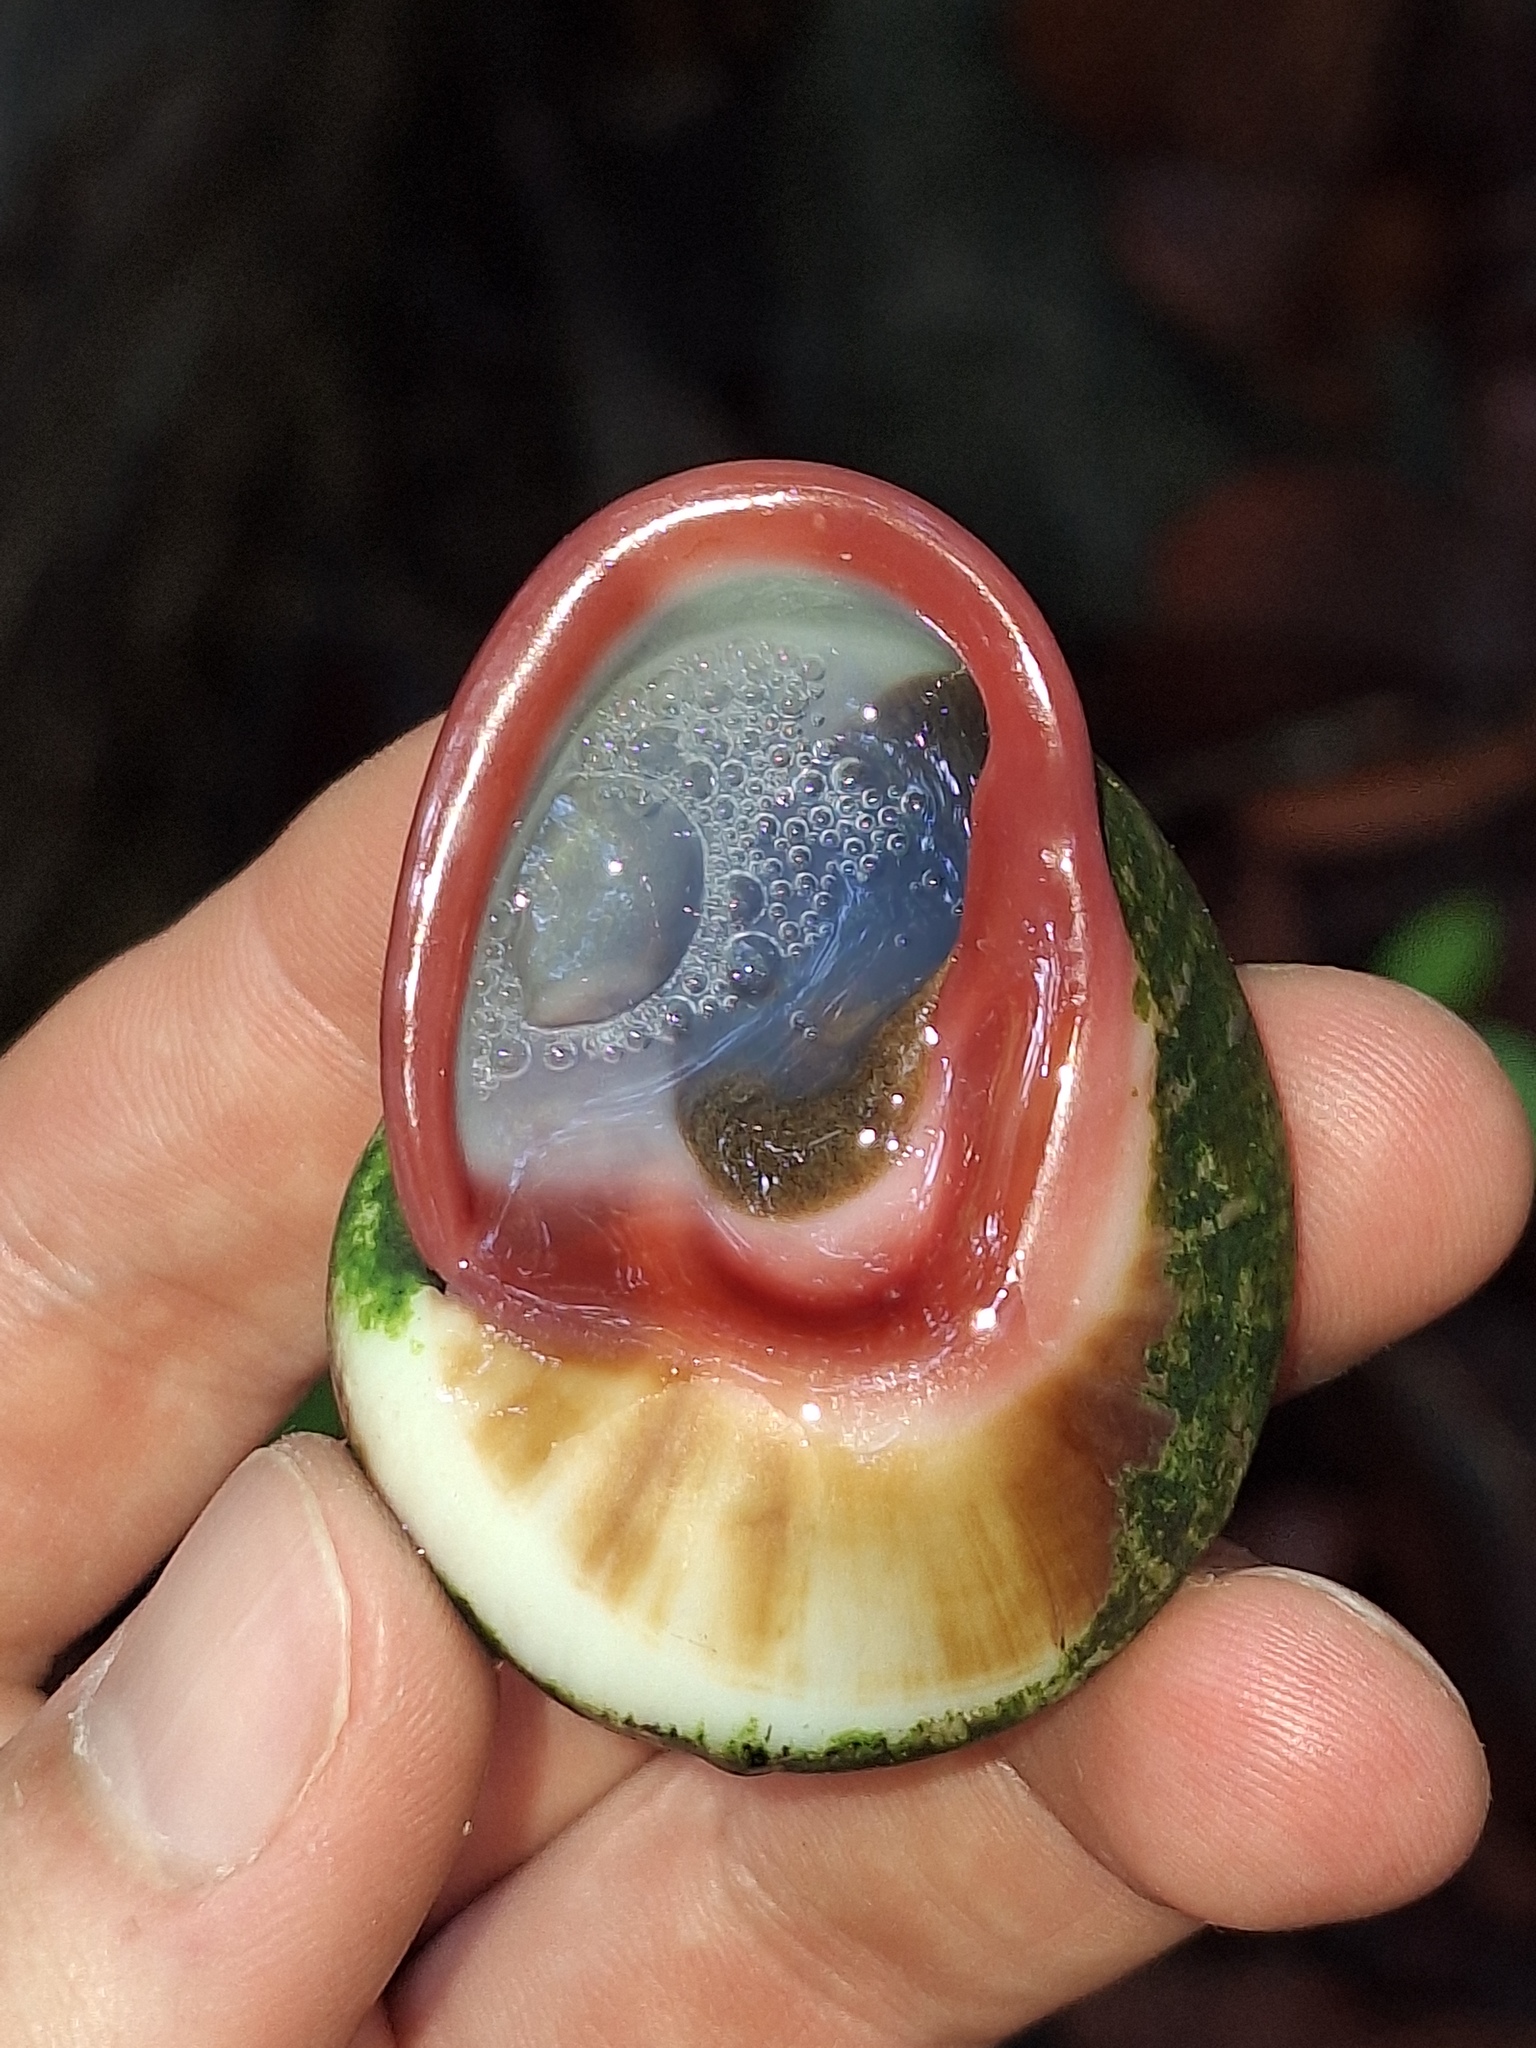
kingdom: Animalia
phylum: Mollusca
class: Gastropoda
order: Stylommatophora
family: Acavidae
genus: Acavus
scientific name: Acavus haemastoma
